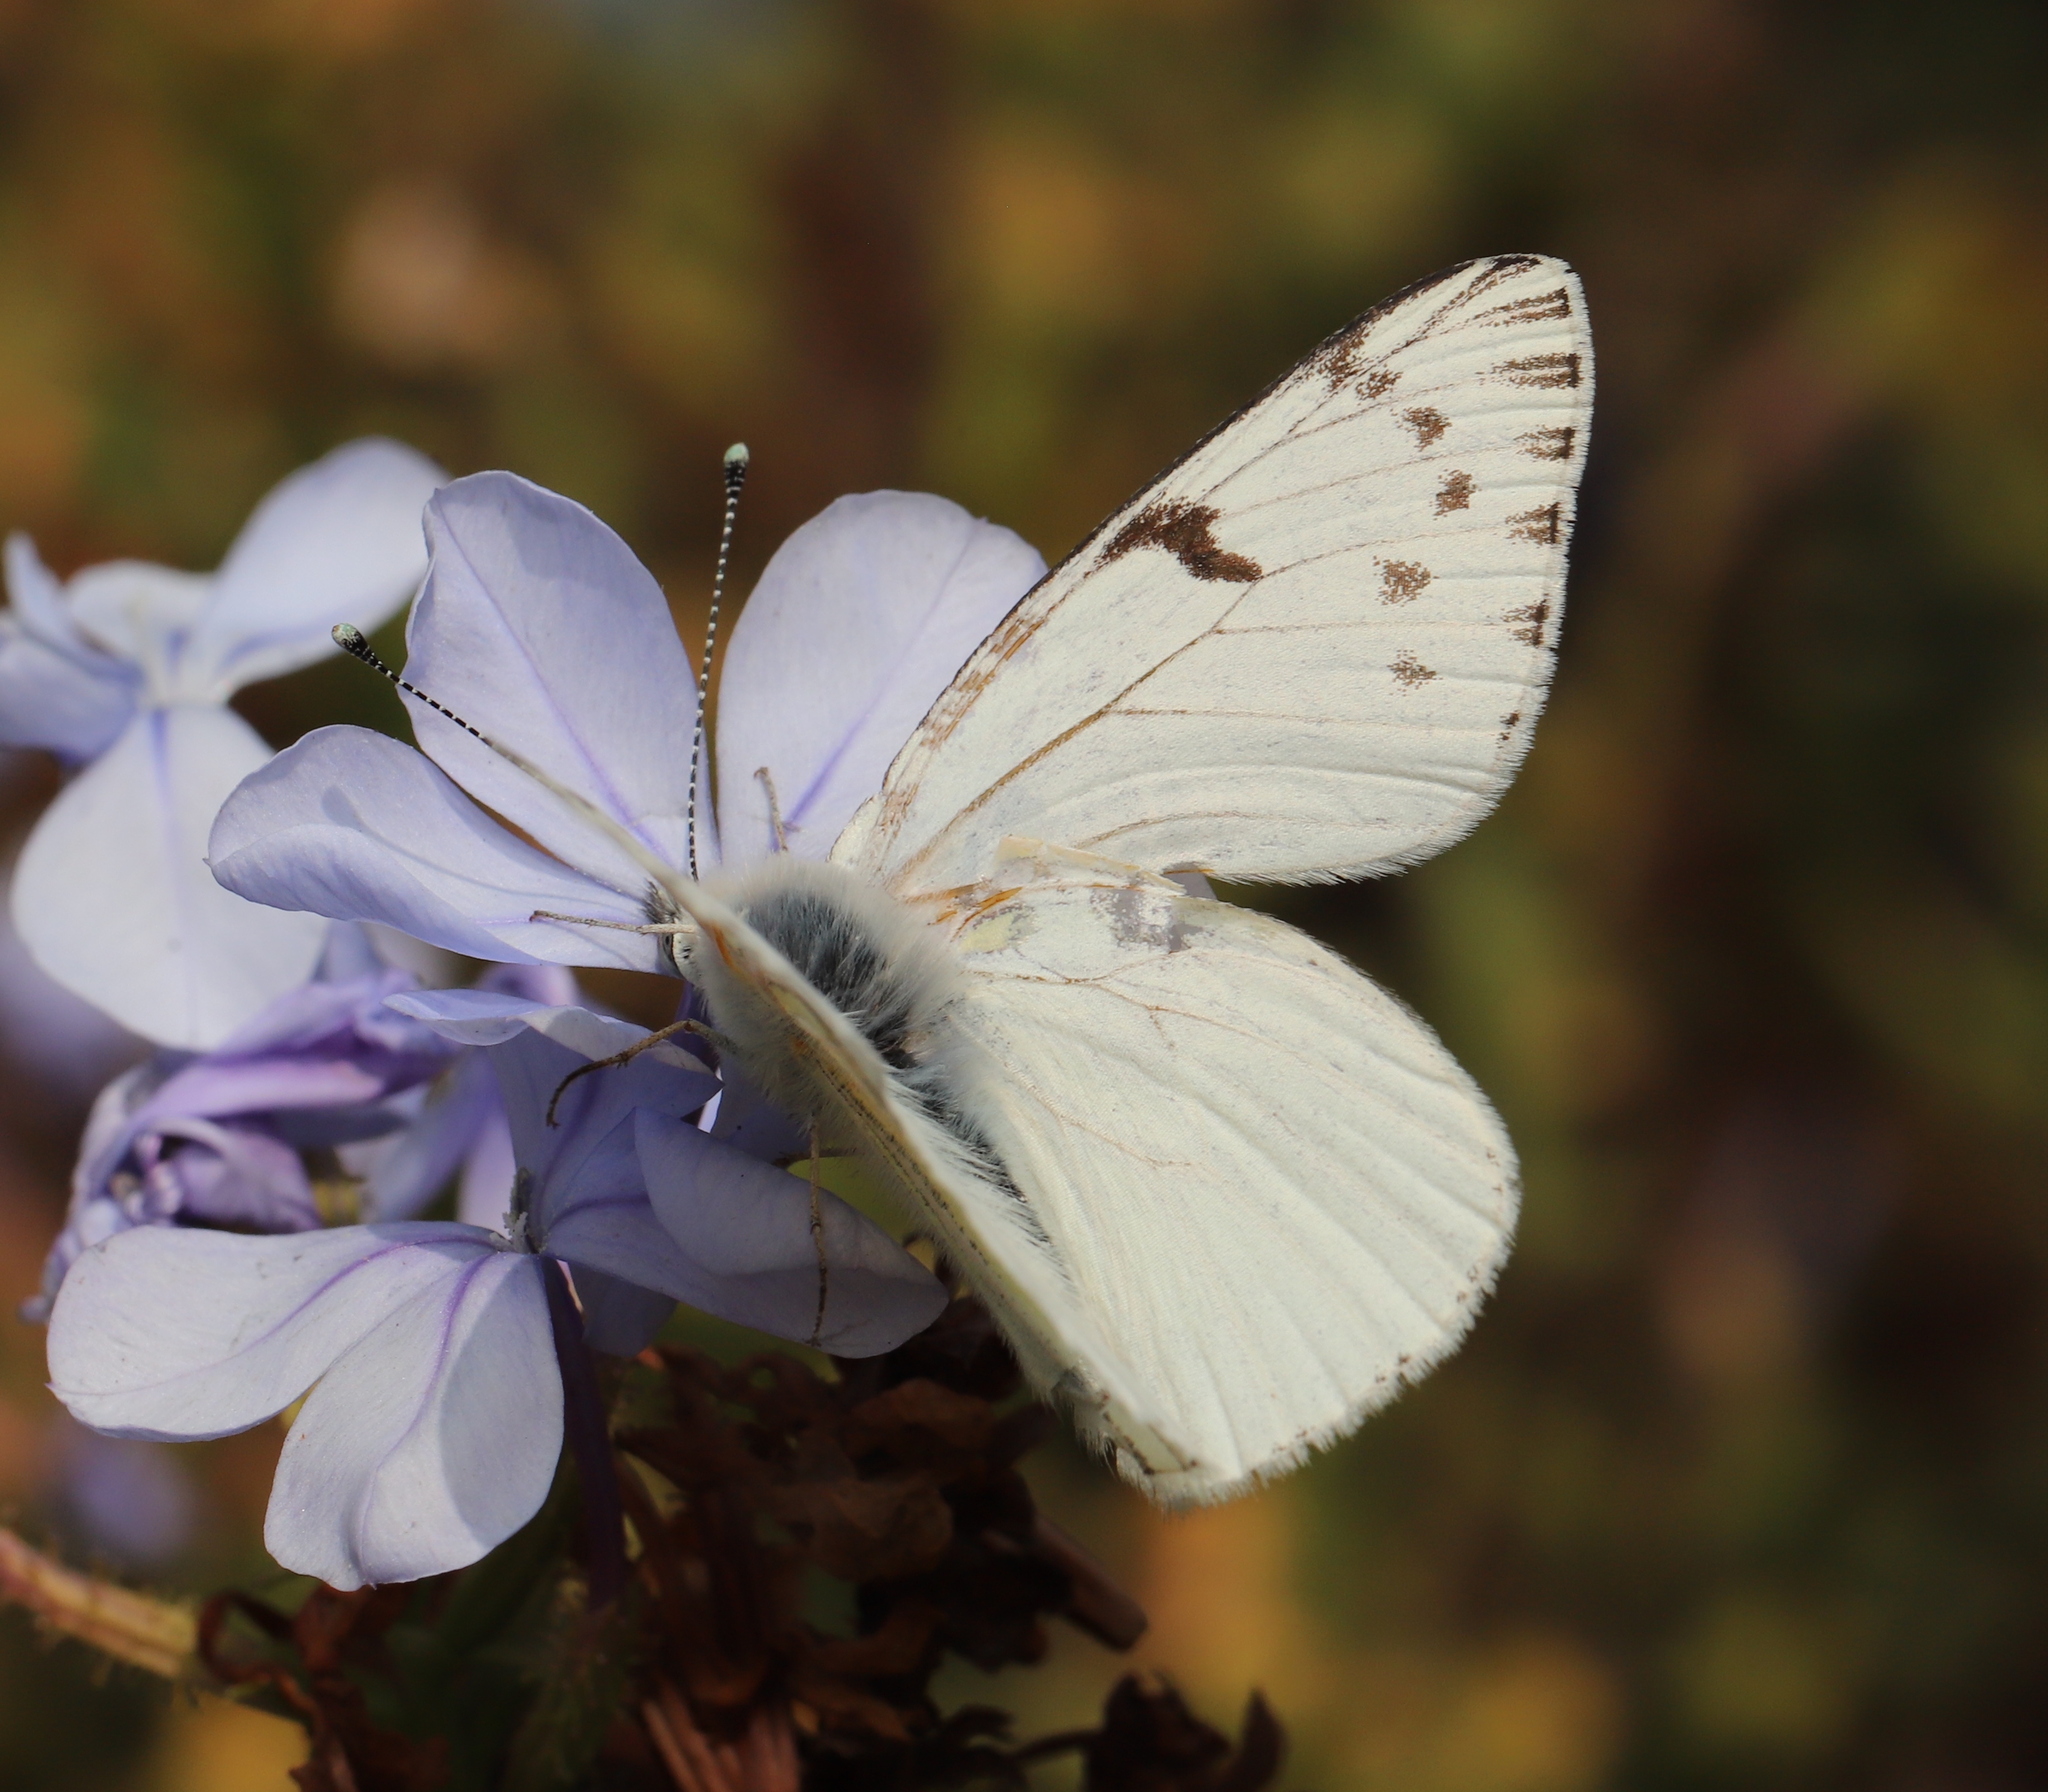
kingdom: Animalia
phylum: Arthropoda
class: Insecta
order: Lepidoptera
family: Pieridae
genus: Tatochila
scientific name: Tatochila mercedis
